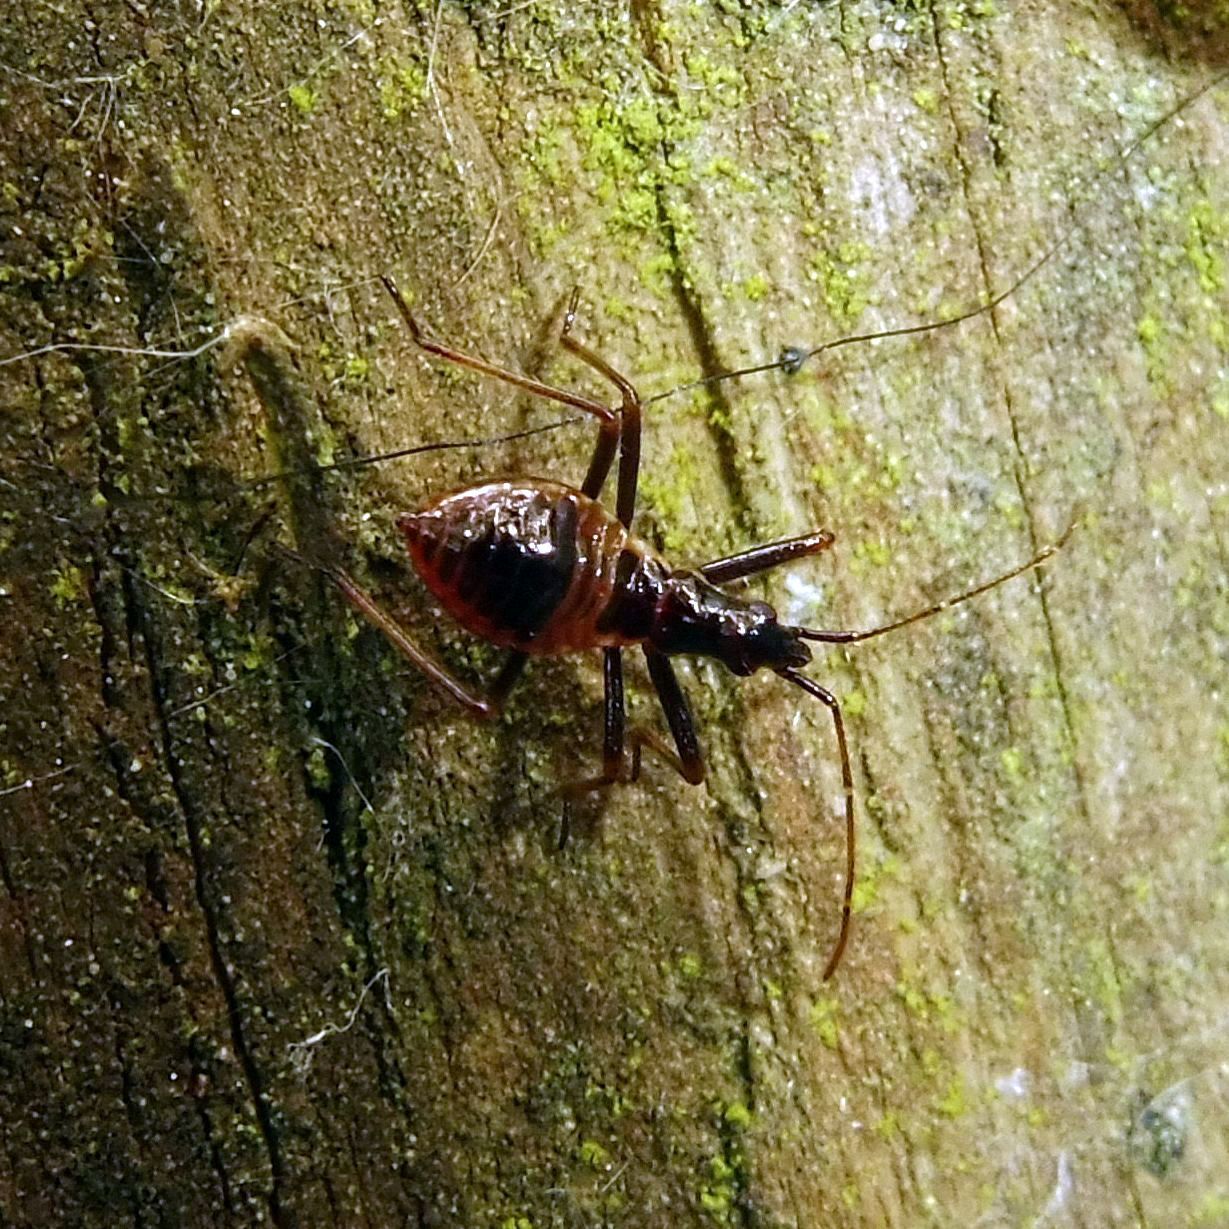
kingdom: Animalia
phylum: Arthropoda
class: Insecta
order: Hemiptera
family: Nabidae
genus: Himacerus
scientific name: Himacerus apterus
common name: Tree damsel bug
